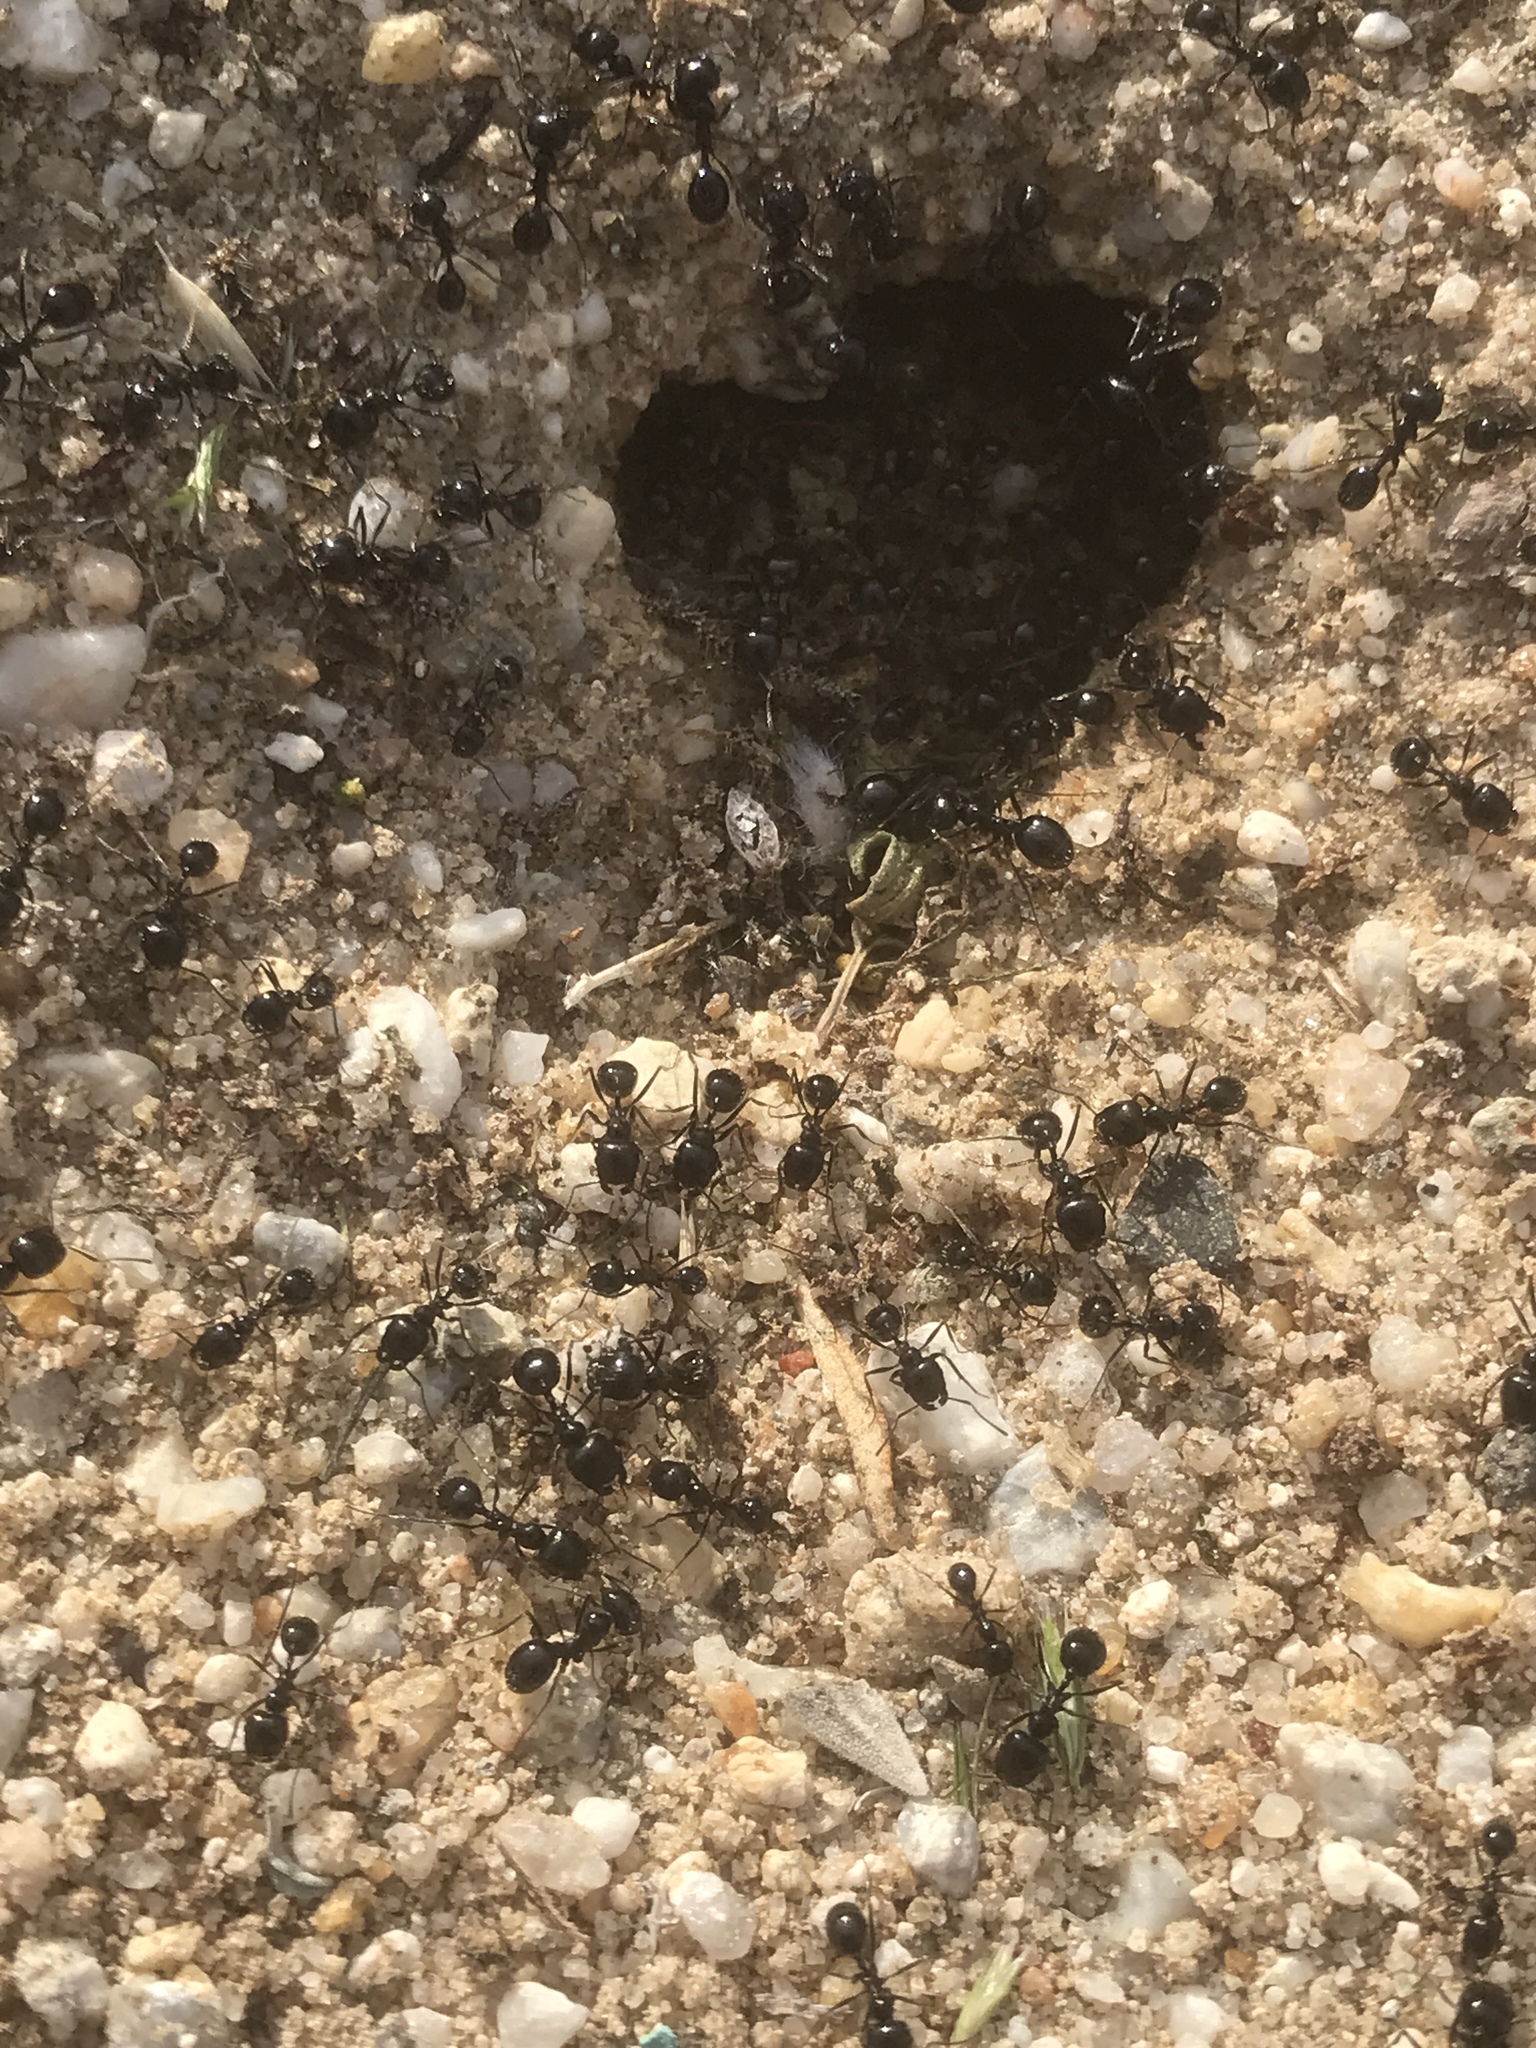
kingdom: Animalia
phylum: Arthropoda
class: Insecta
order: Hymenoptera
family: Formicidae
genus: Messor
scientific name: Messor pergandei
